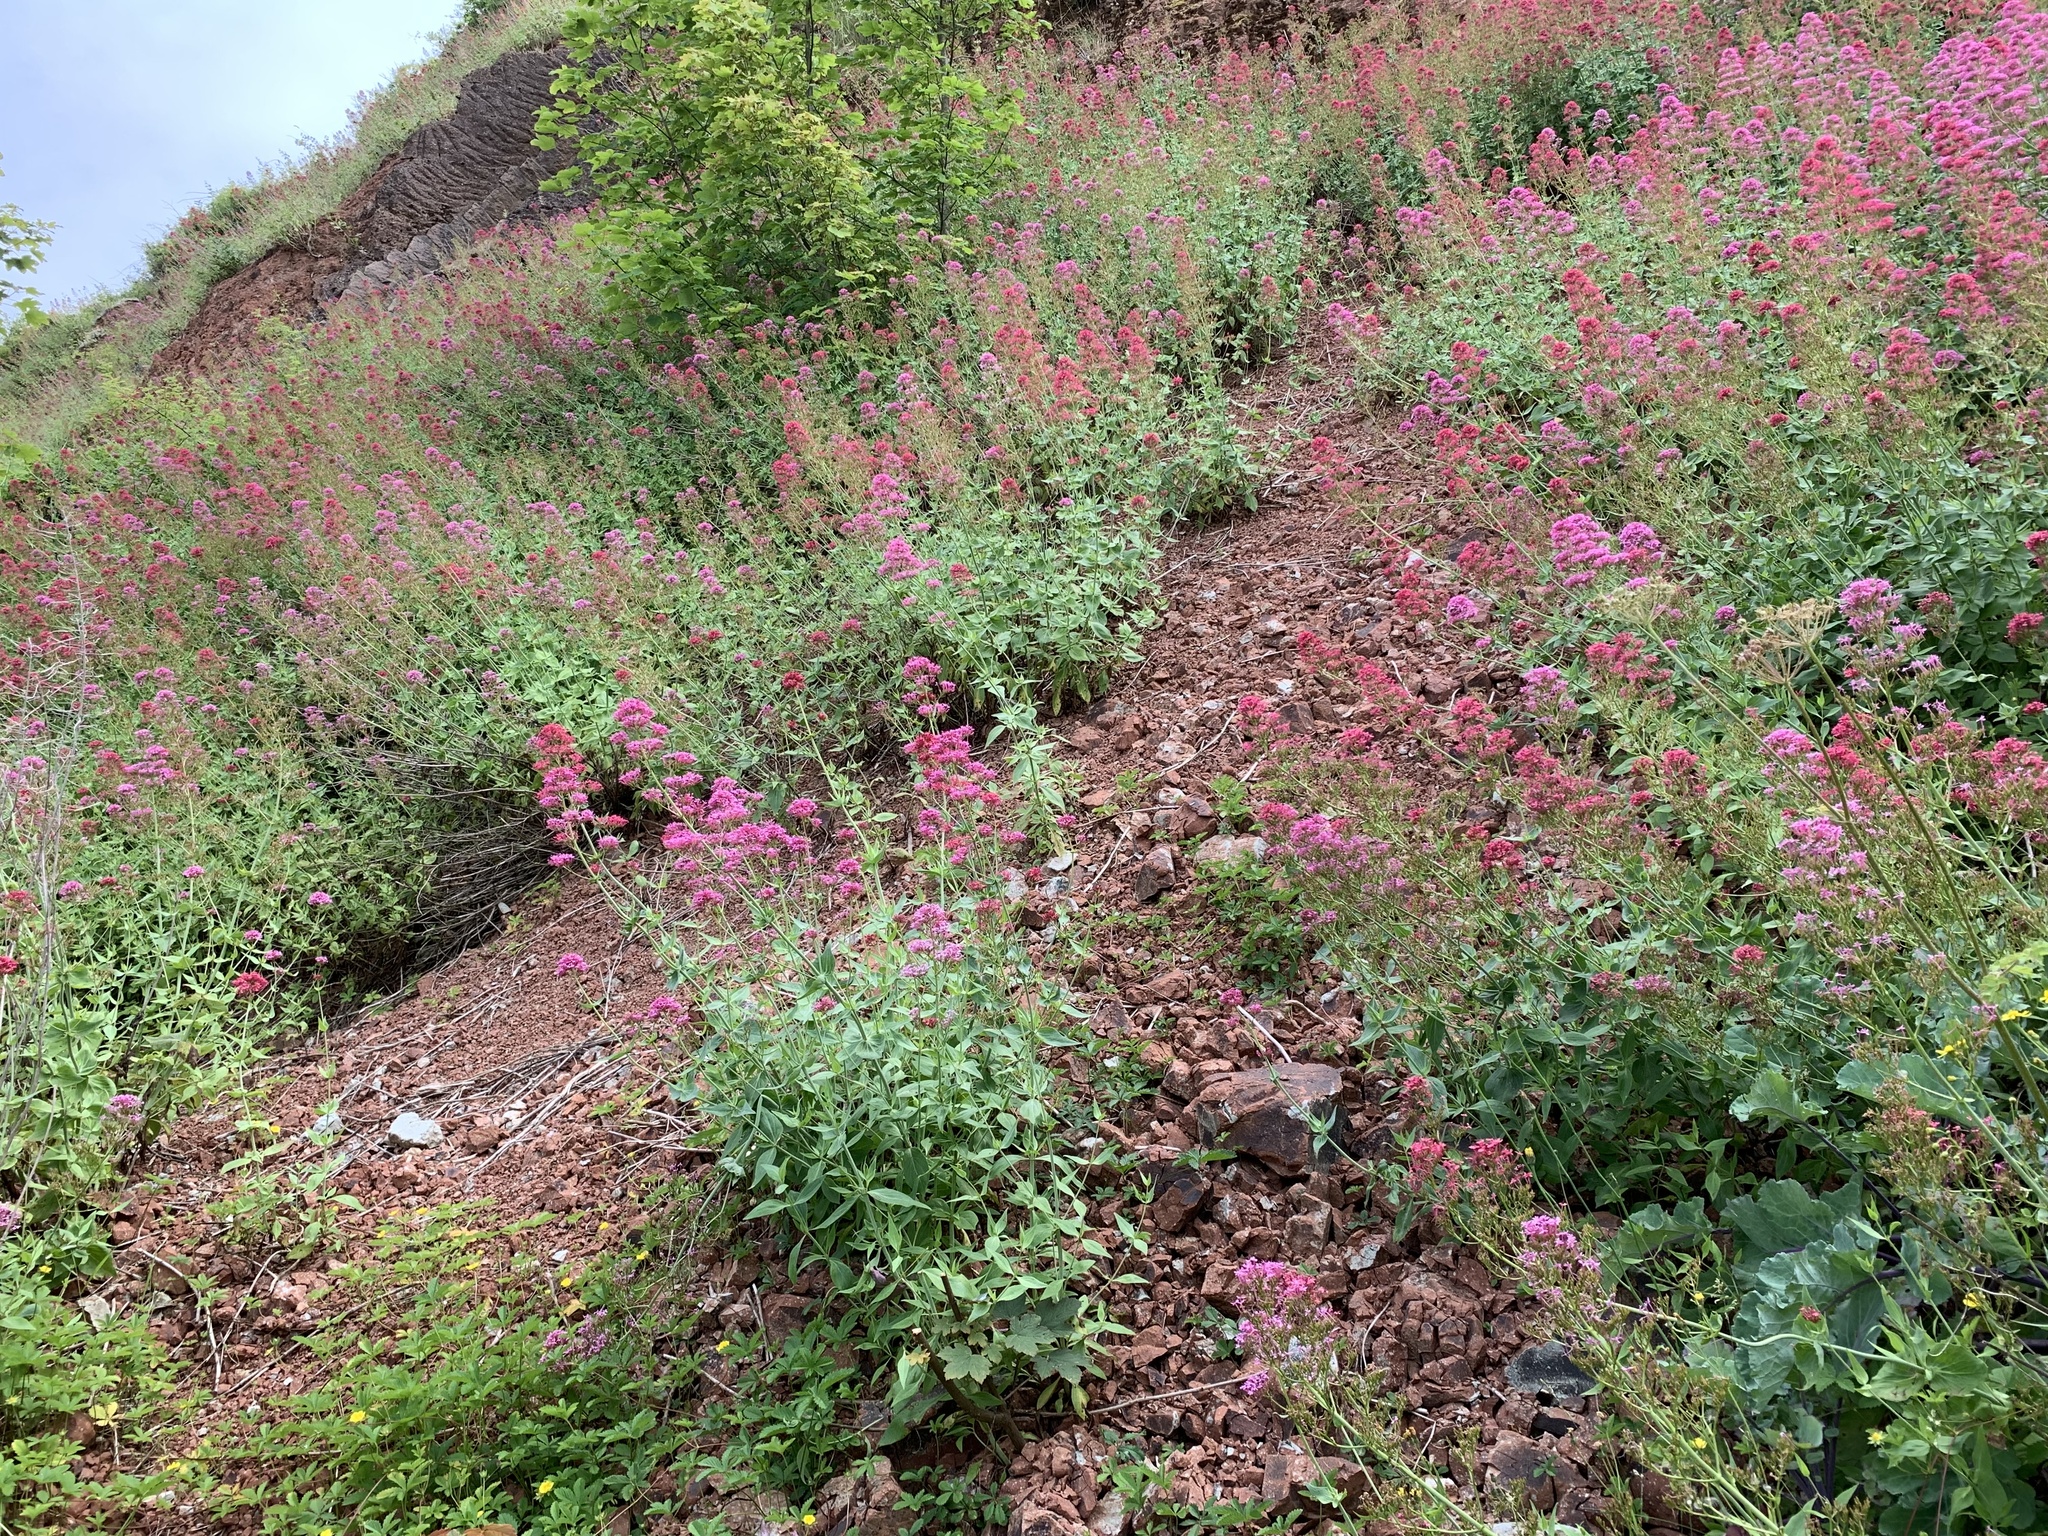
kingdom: Plantae
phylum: Tracheophyta
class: Magnoliopsida
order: Dipsacales
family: Caprifoliaceae
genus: Centranthus
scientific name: Centranthus ruber
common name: Red valerian
